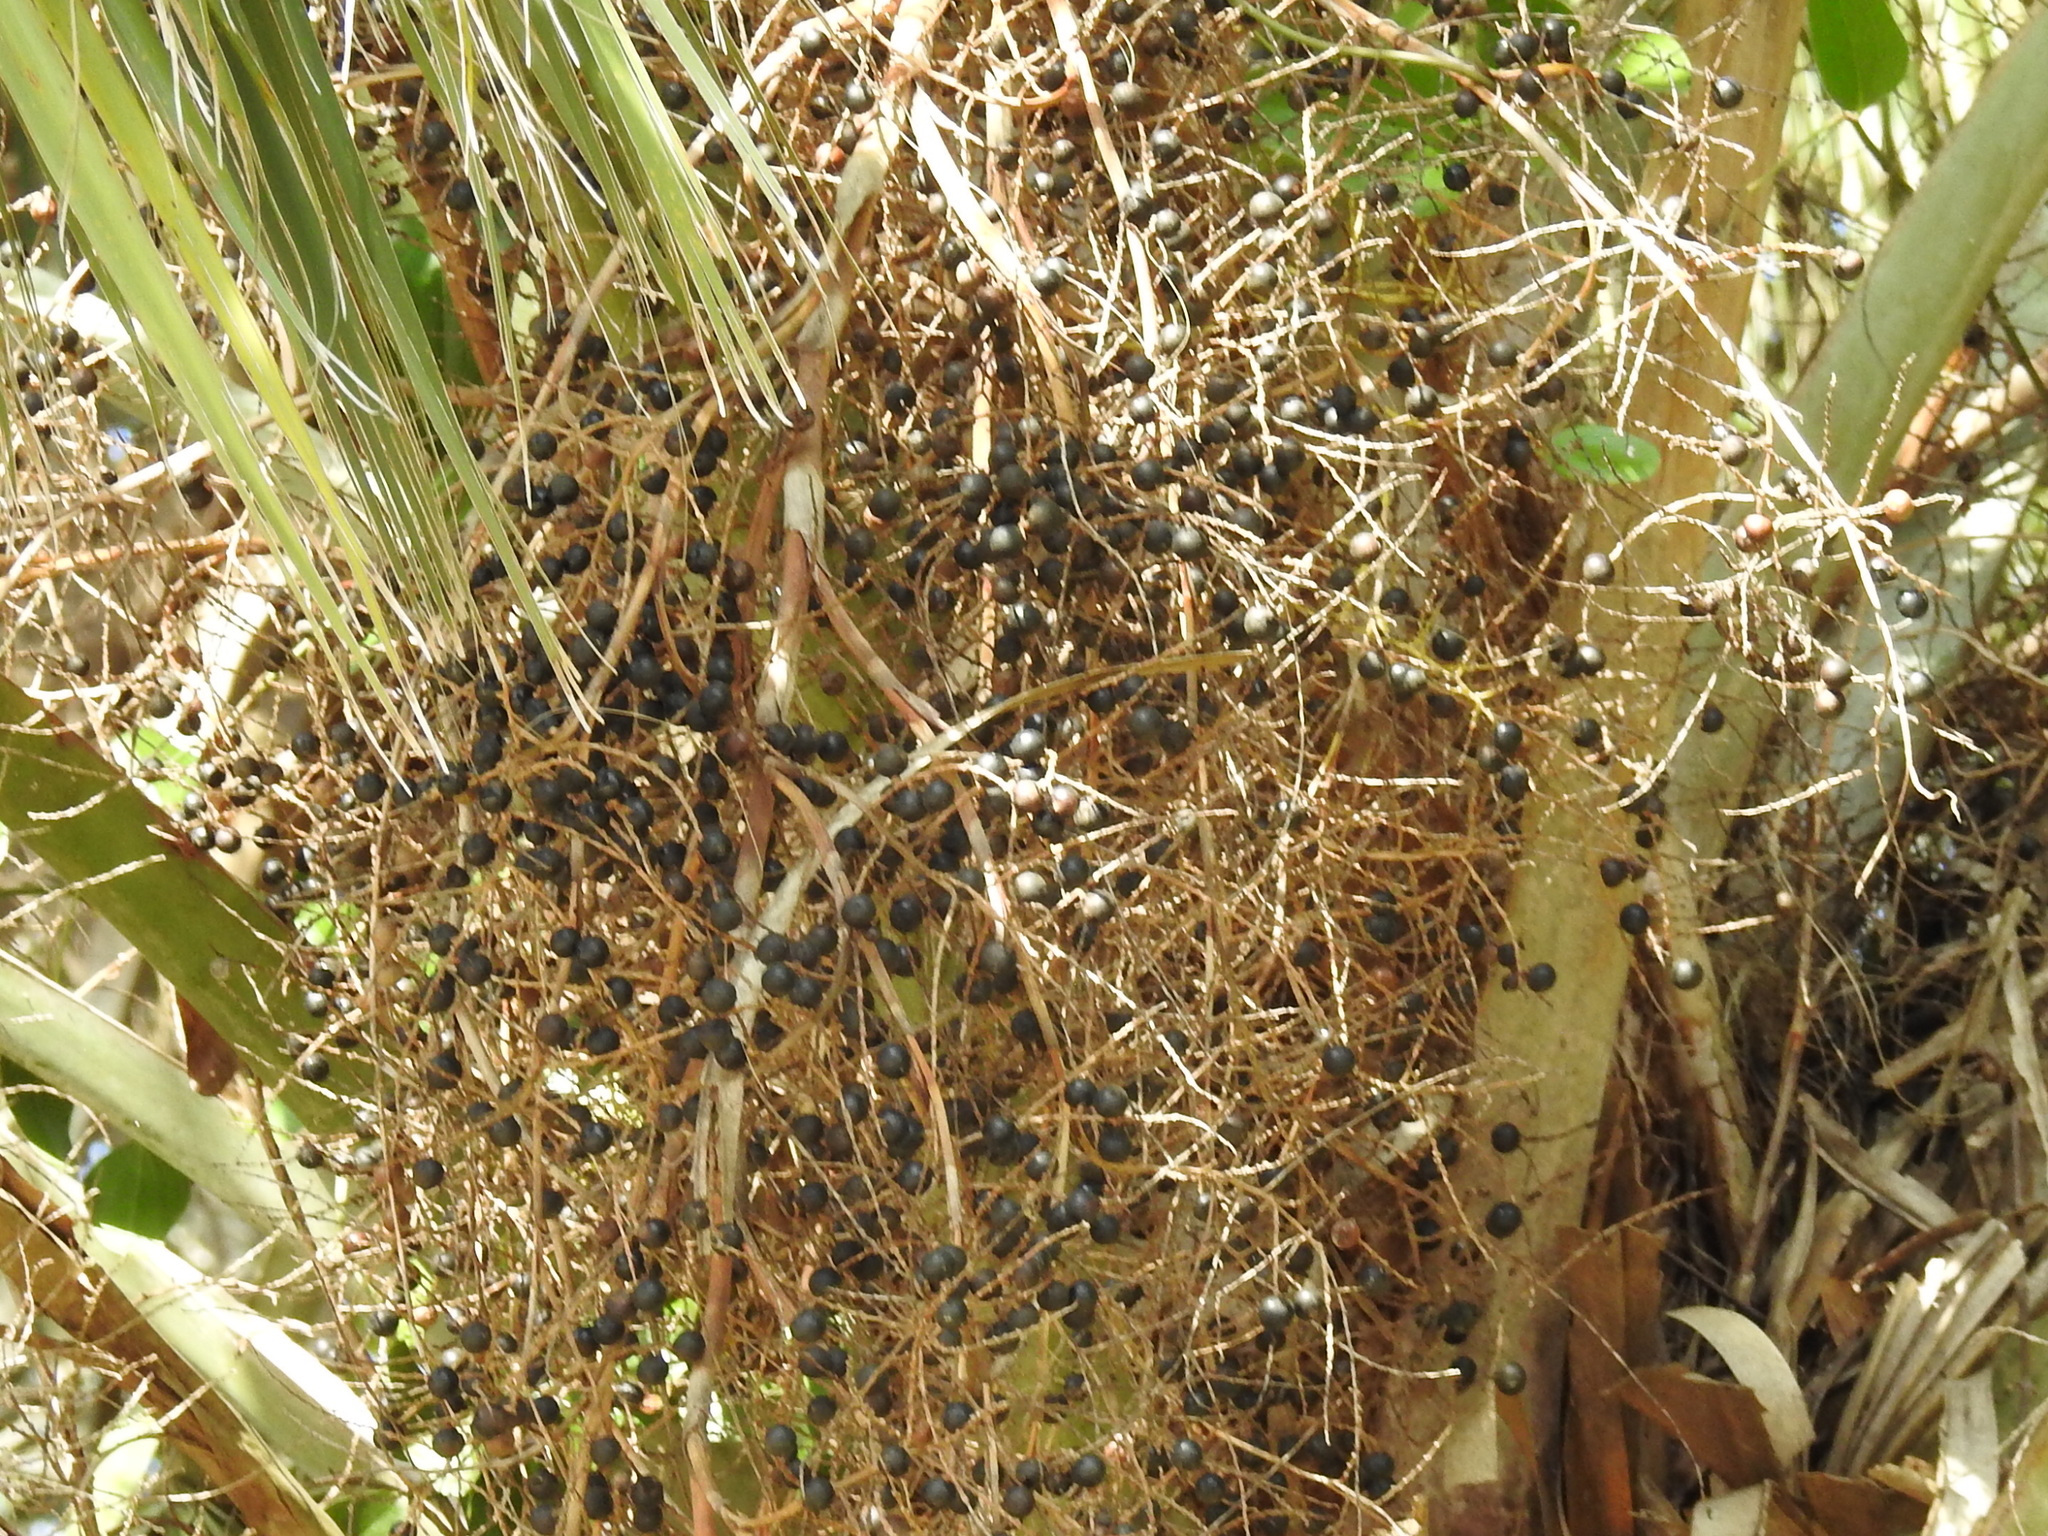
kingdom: Plantae
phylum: Tracheophyta
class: Liliopsida
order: Arecales
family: Arecaceae
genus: Sabal
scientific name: Sabal palmetto
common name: Blue palmetto
